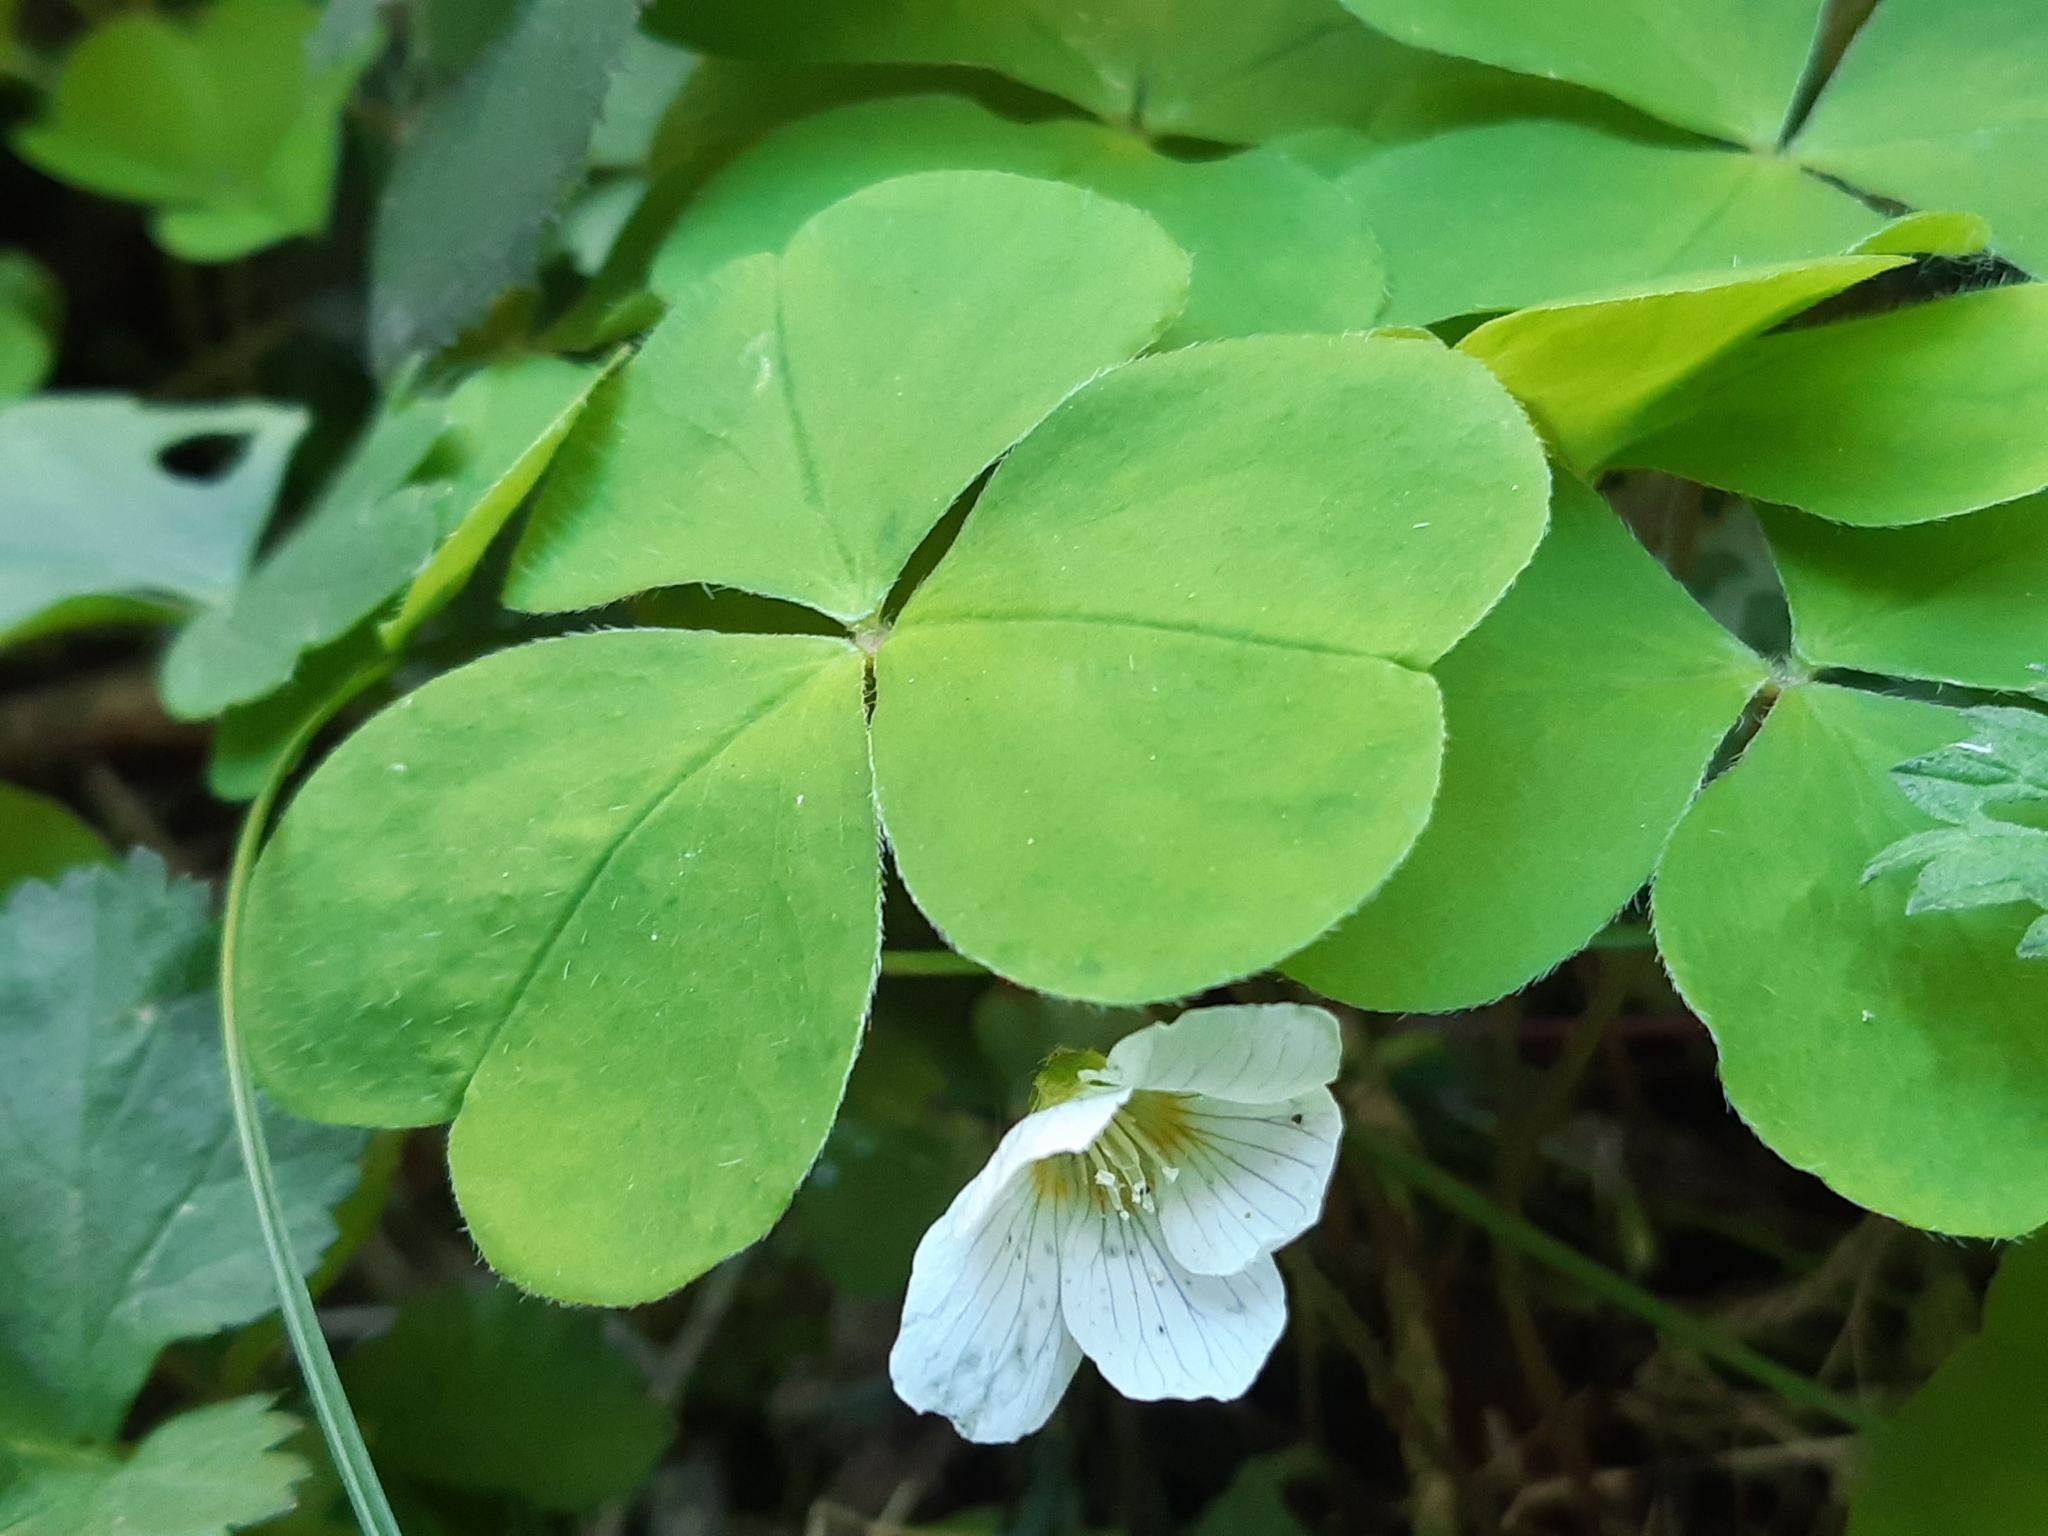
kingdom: Plantae
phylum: Tracheophyta
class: Magnoliopsida
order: Oxalidales
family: Oxalidaceae
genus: Oxalis
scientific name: Oxalis acetosella
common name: Wood-sorrel
